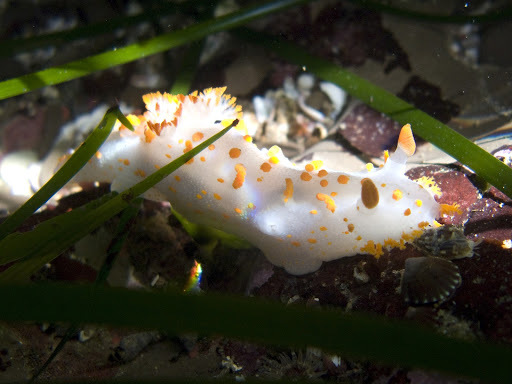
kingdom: Animalia
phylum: Mollusca
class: Gastropoda
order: Nudibranchia
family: Polyceridae
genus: Triopha
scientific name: Triopha catalinae
